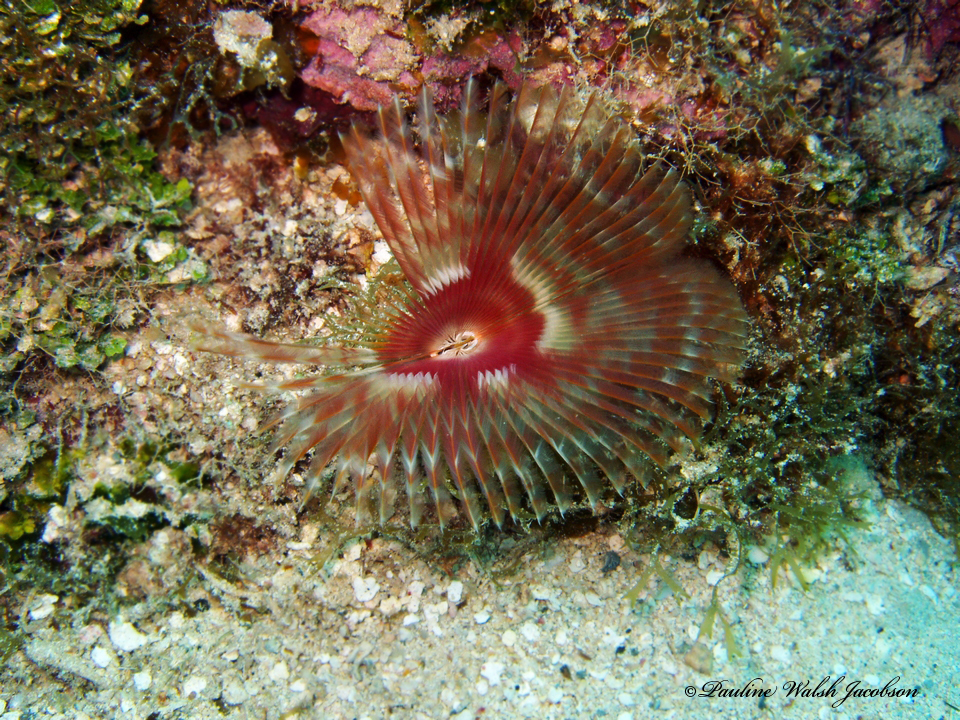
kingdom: Animalia
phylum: Annelida
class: Polychaeta
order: Sabellida
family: Sabellidae
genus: Anamobaea
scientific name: Anamobaea orstedii
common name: Split-crown feather duster
